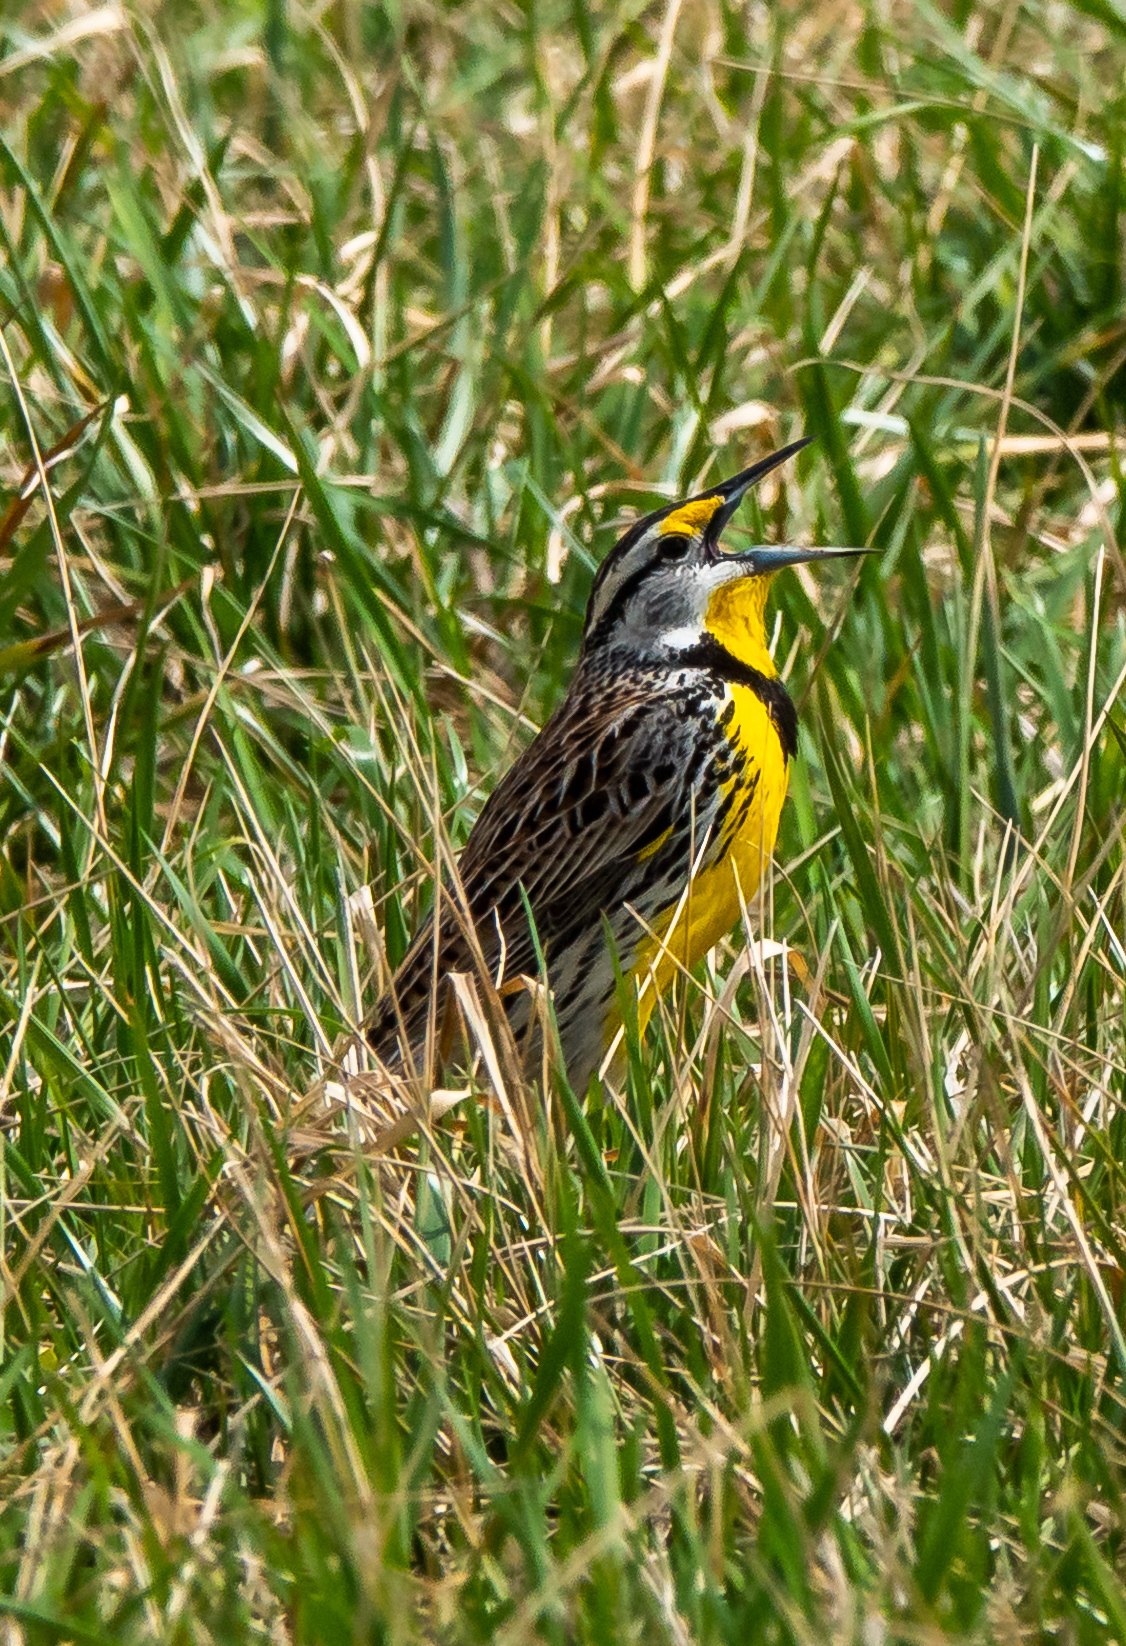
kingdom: Animalia
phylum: Chordata
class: Aves
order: Passeriformes
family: Icteridae
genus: Sturnella
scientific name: Sturnella magna
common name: Eastern meadowlark
